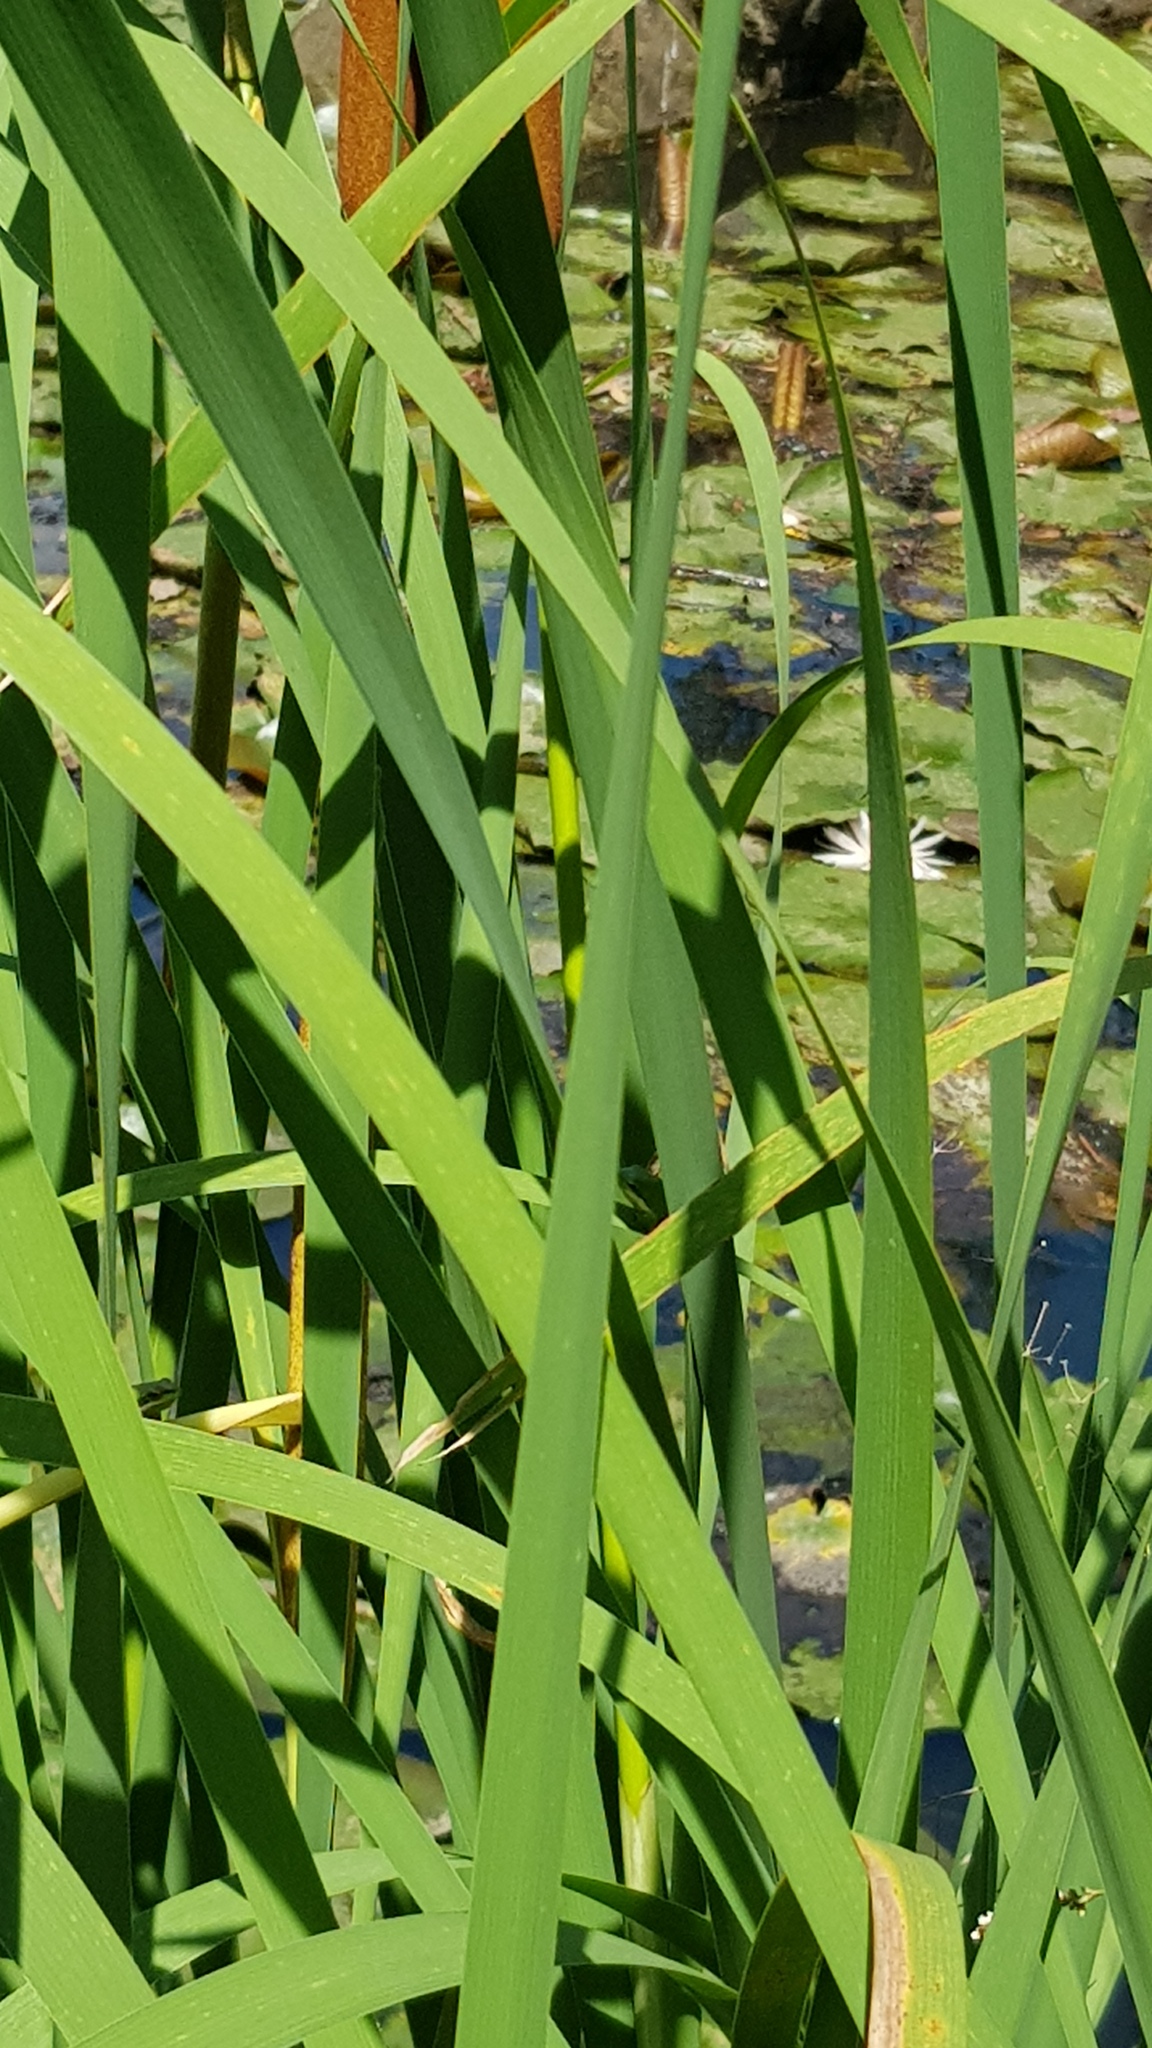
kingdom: Animalia
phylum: Chordata
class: Amphibia
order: Anura
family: Pelodryadidae
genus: Litoria
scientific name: Litoria fallax
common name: Eastern dwarf treefrog
